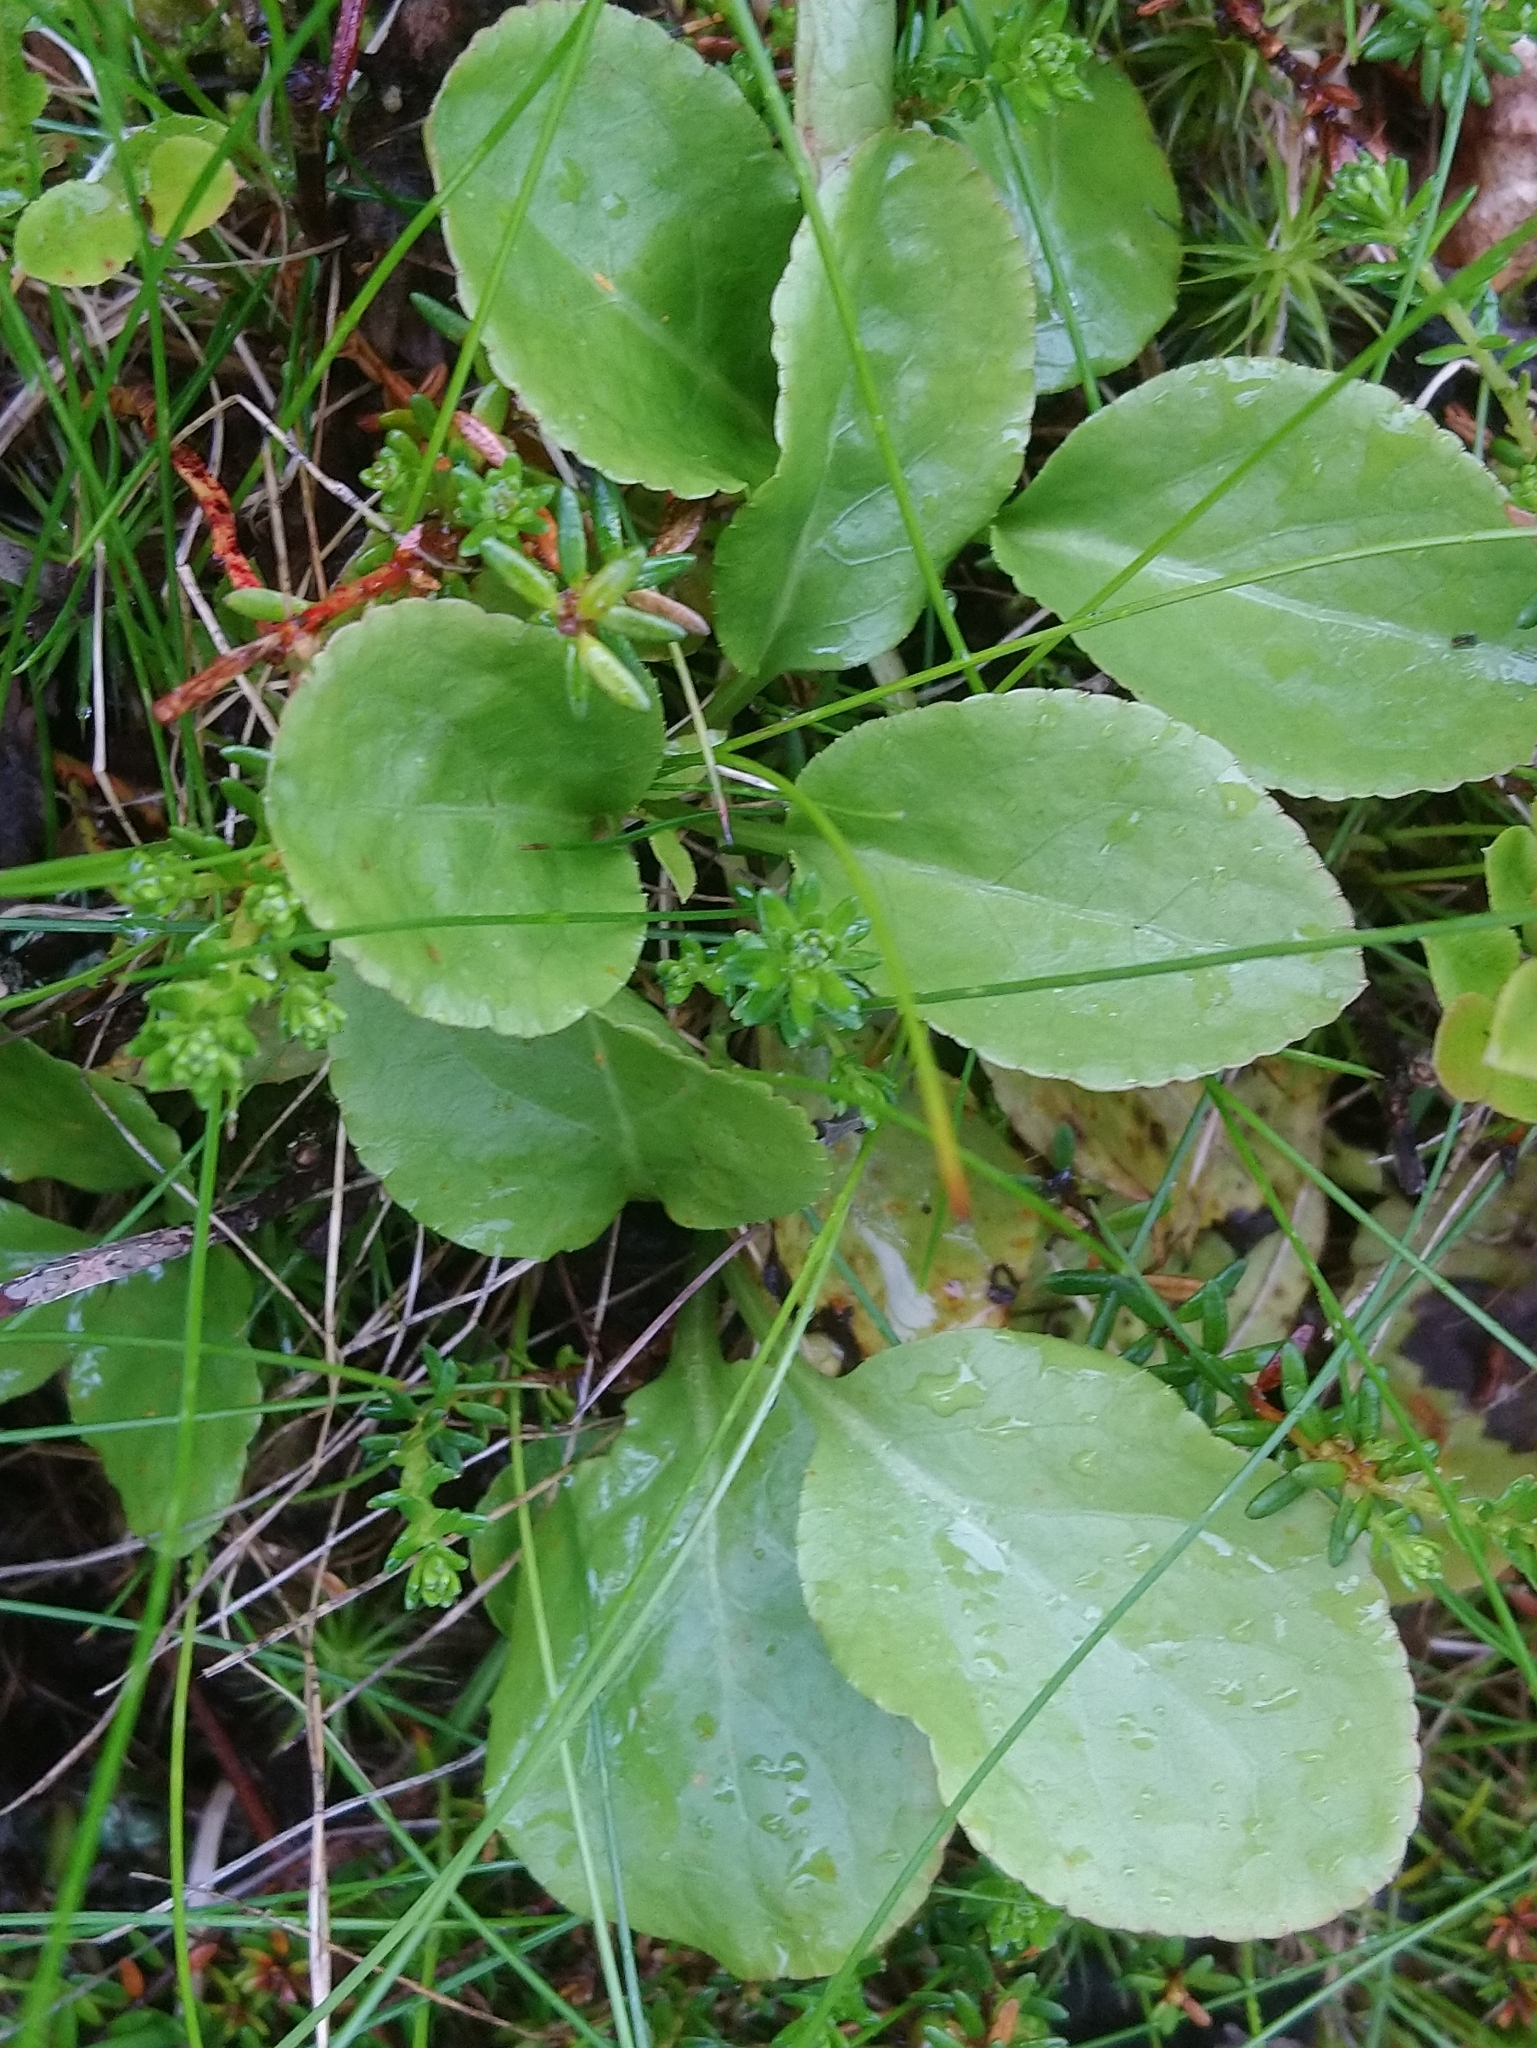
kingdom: Plantae
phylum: Tracheophyta
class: Magnoliopsida
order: Ericales
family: Ericaceae
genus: Pyrola
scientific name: Pyrola minor
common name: Common wintergreen
